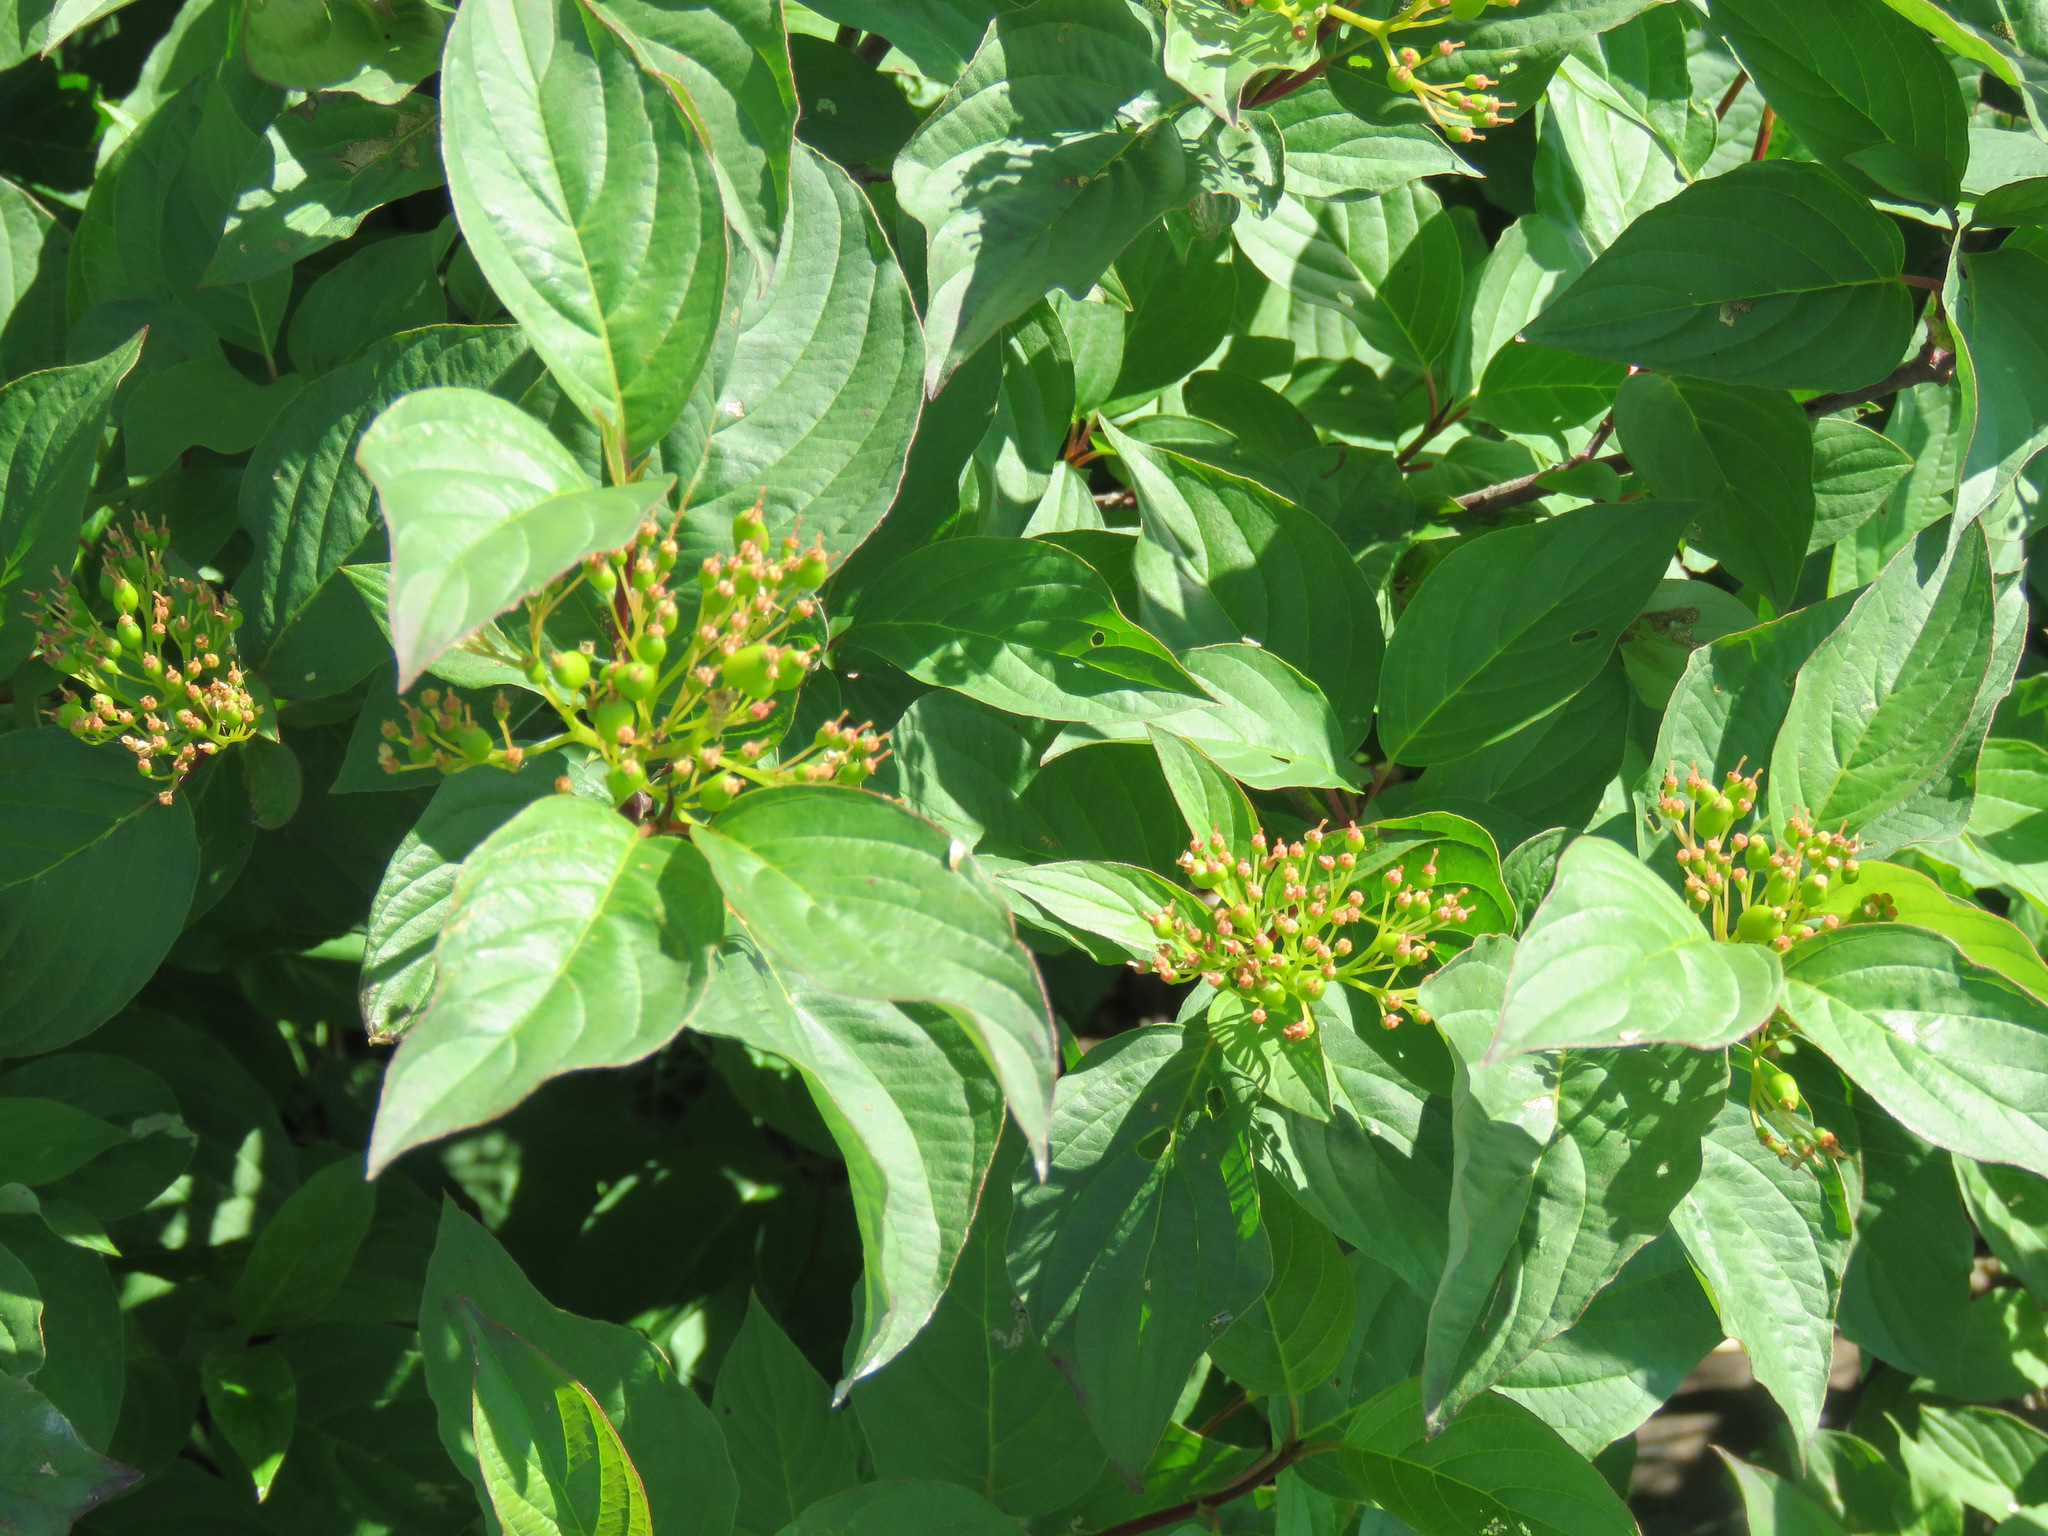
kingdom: Plantae
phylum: Tracheophyta
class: Magnoliopsida
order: Cornales
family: Cornaceae
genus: Cornus
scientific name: Cornus sericea
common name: Red-osier dogwood
